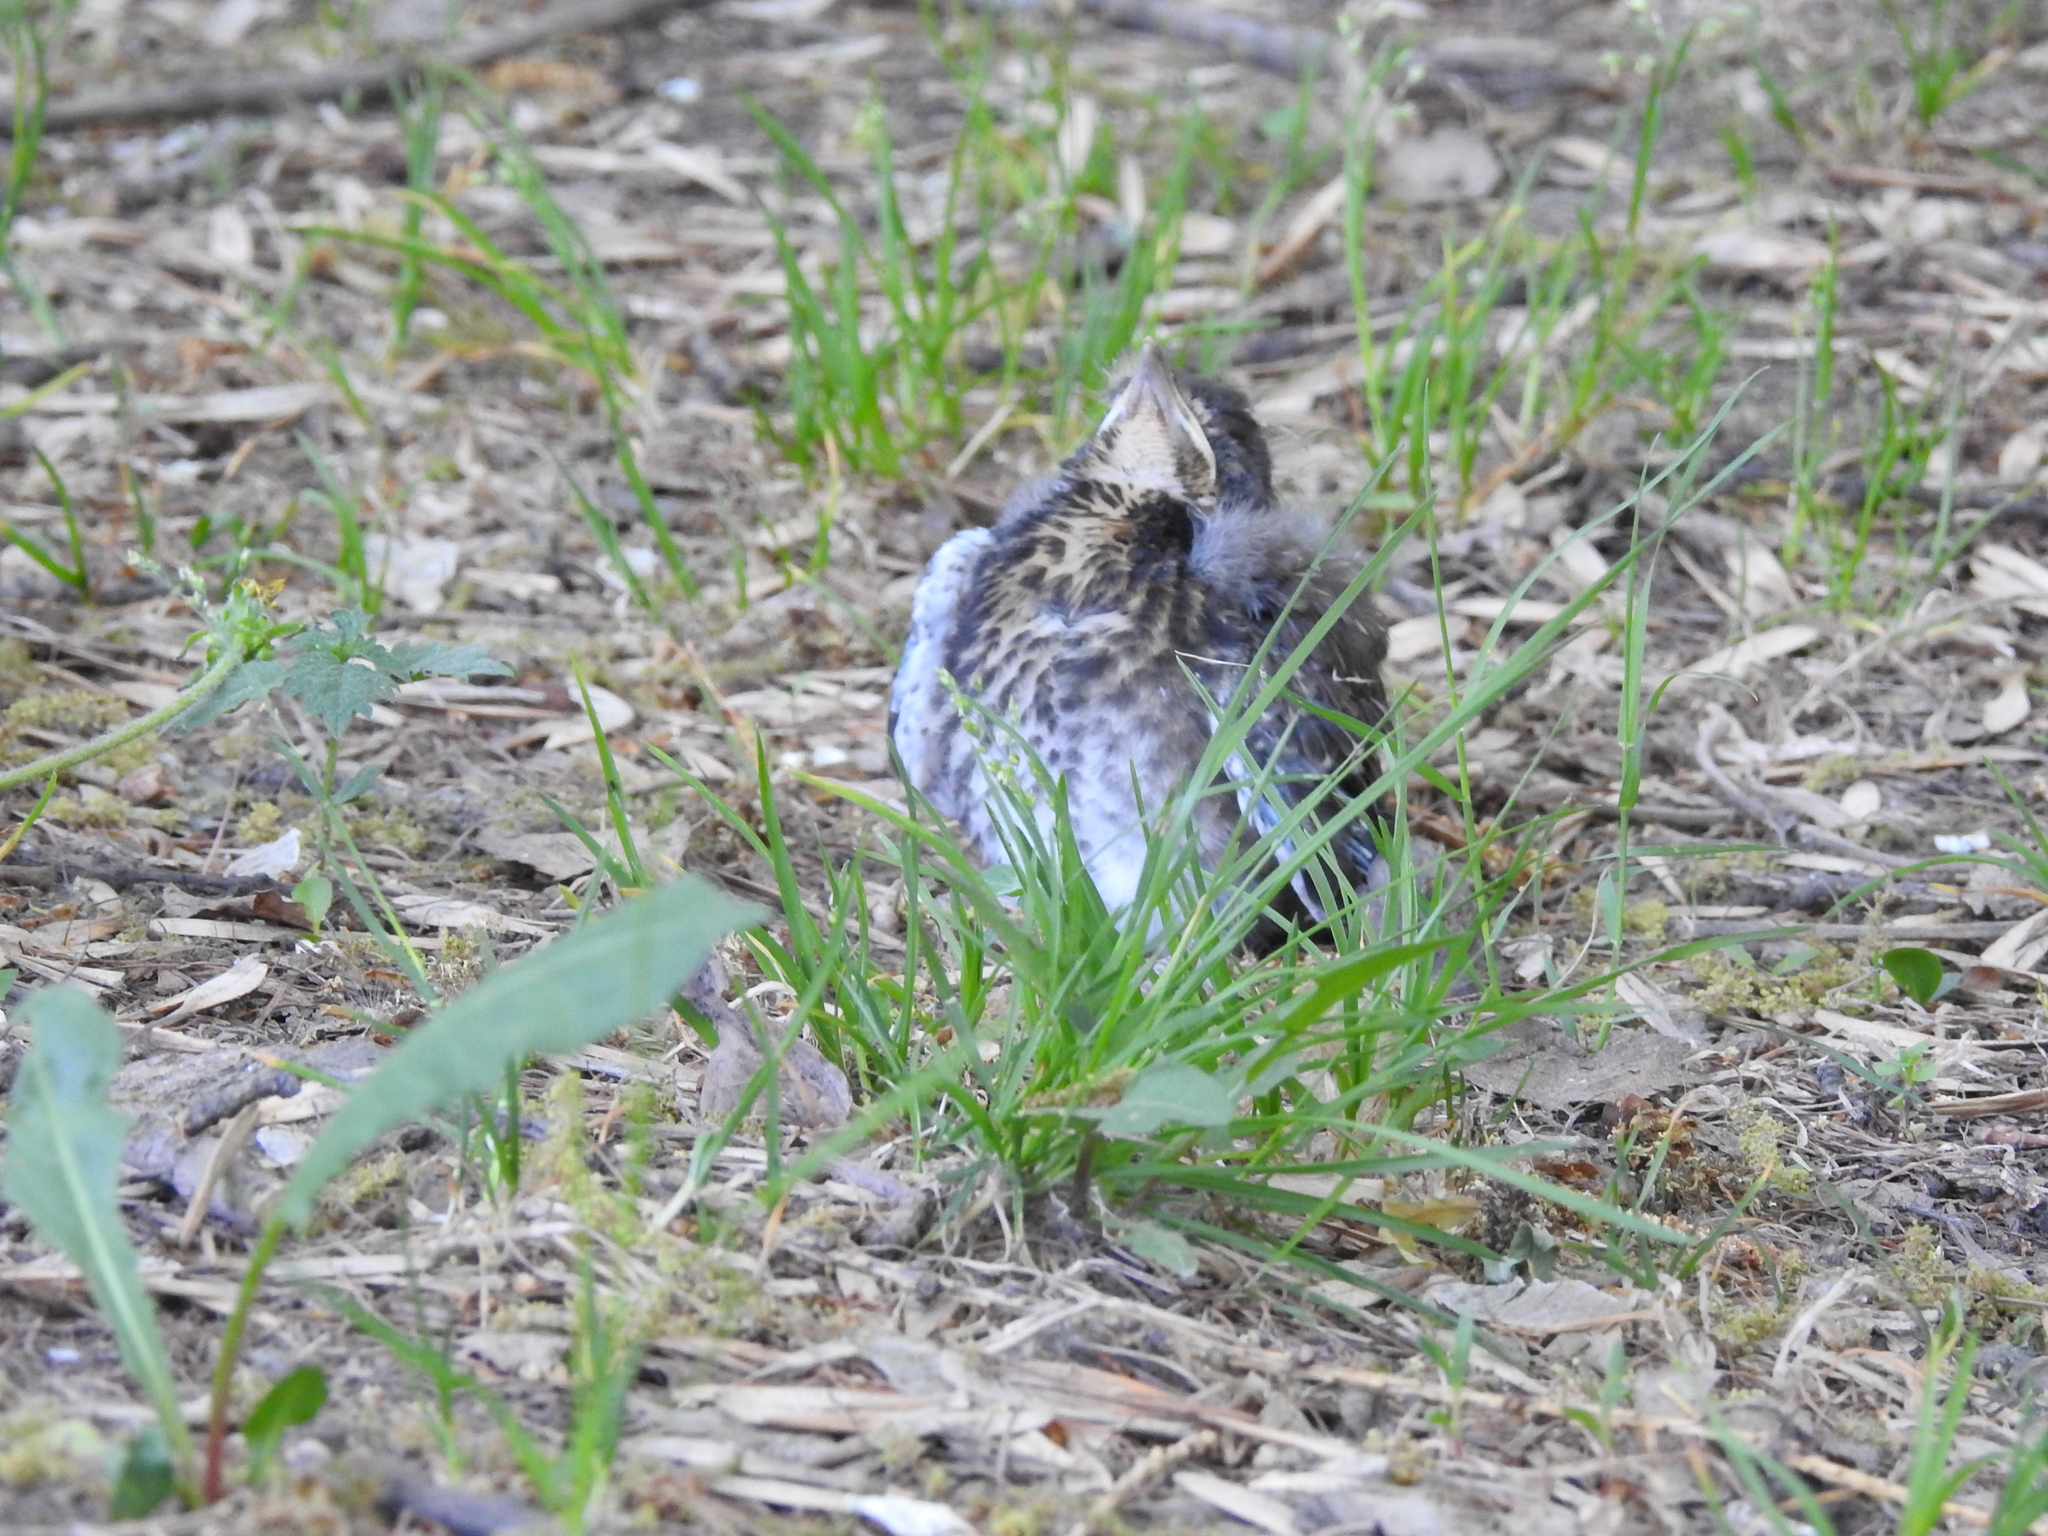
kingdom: Animalia
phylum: Chordata
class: Aves
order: Passeriformes
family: Turdidae
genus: Turdus
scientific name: Turdus pilaris
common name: Fieldfare
